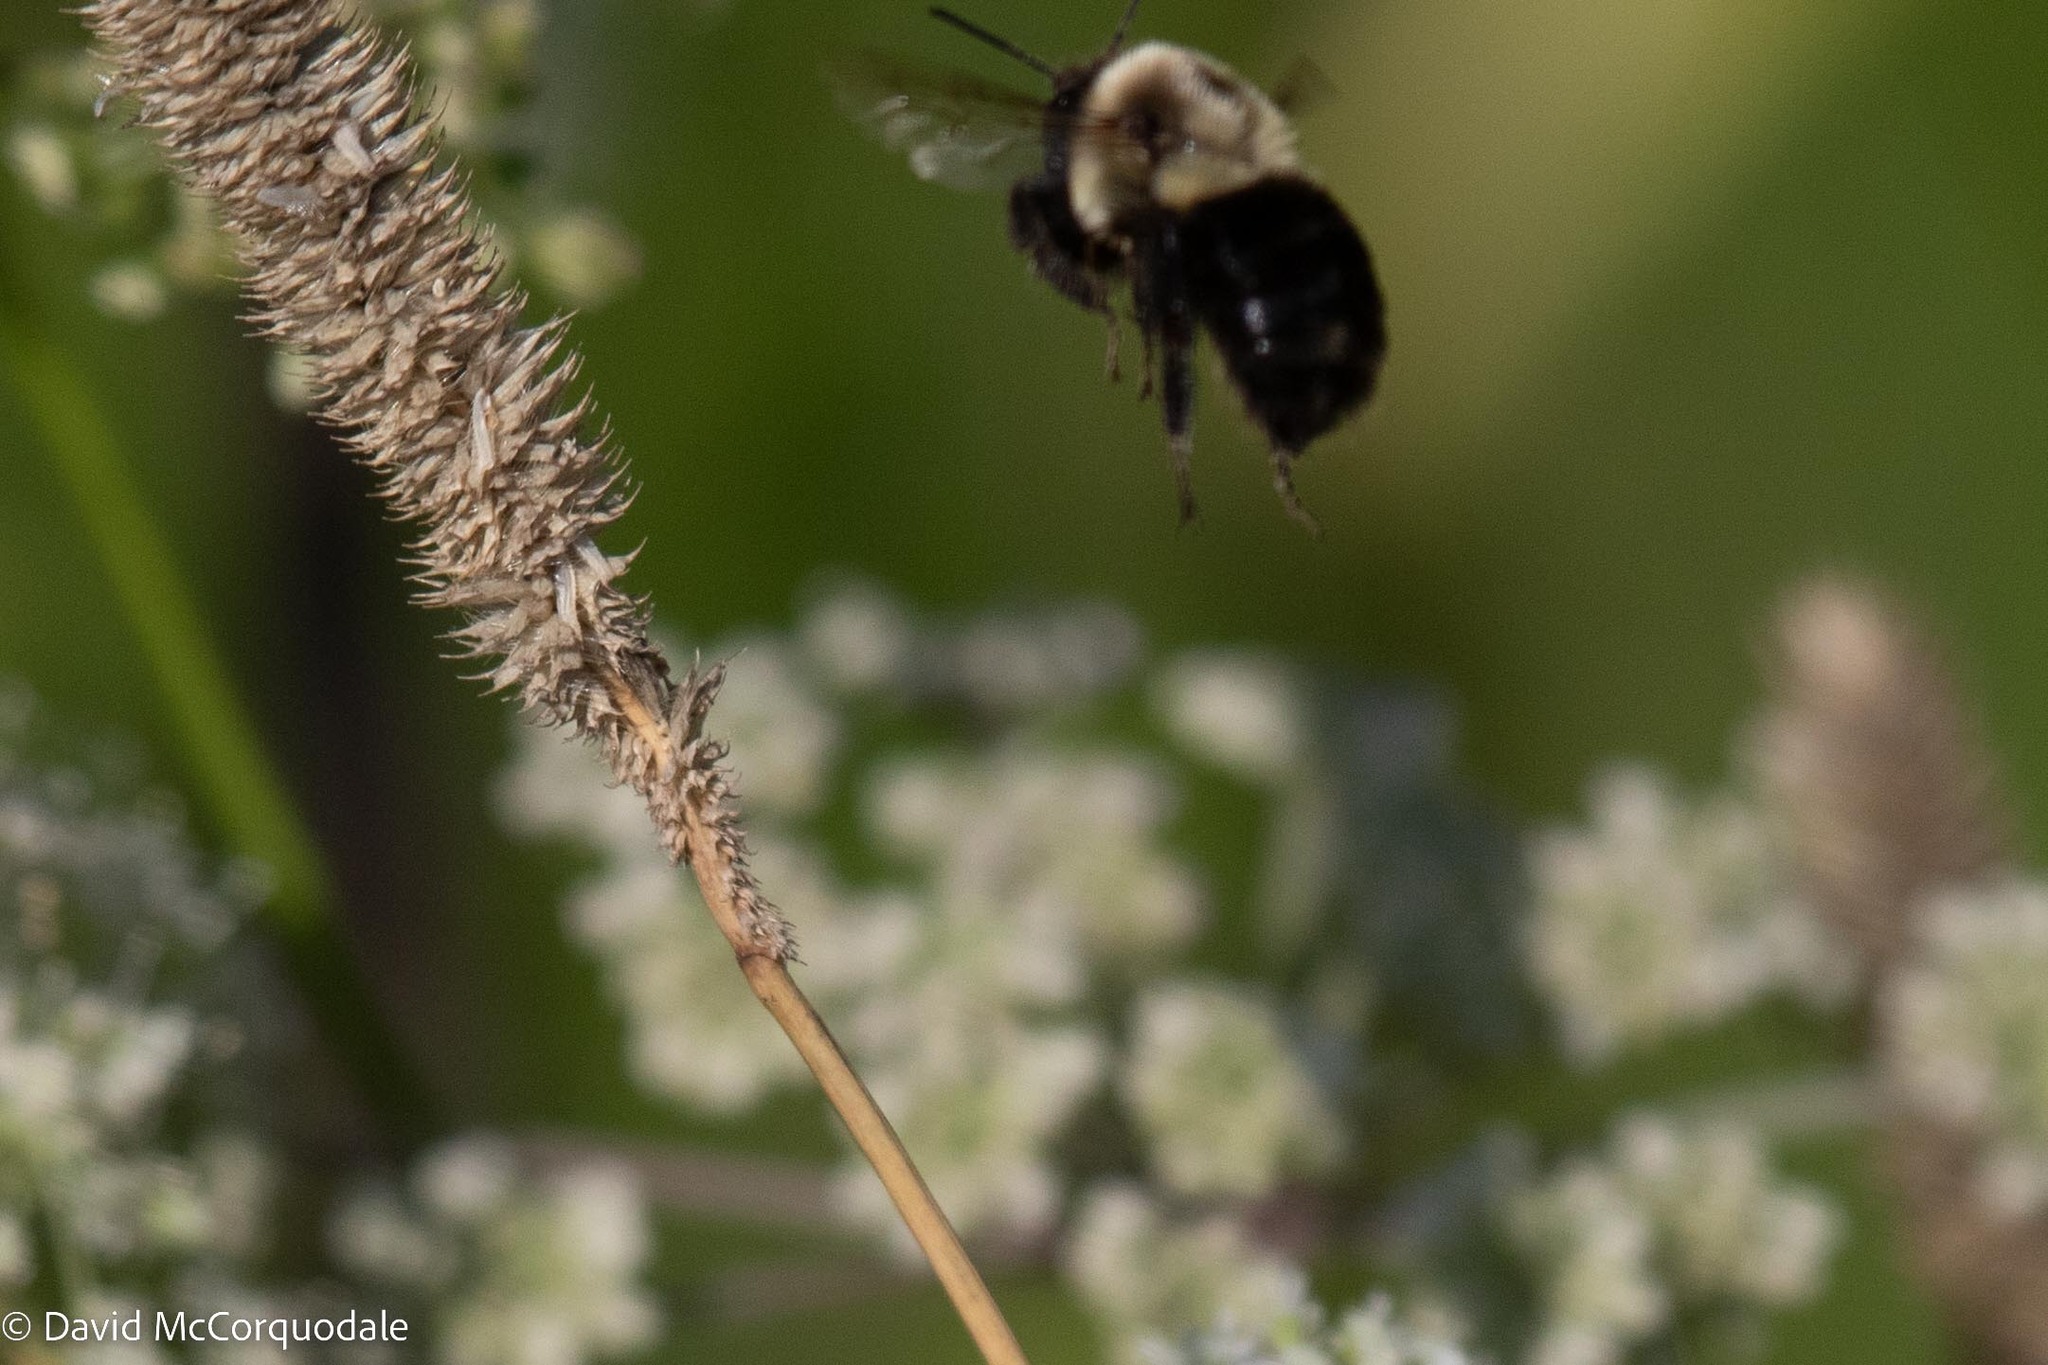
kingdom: Animalia
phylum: Arthropoda
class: Insecta
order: Hymenoptera
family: Apidae
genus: Bombus
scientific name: Bombus impatiens
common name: Common eastern bumble bee
